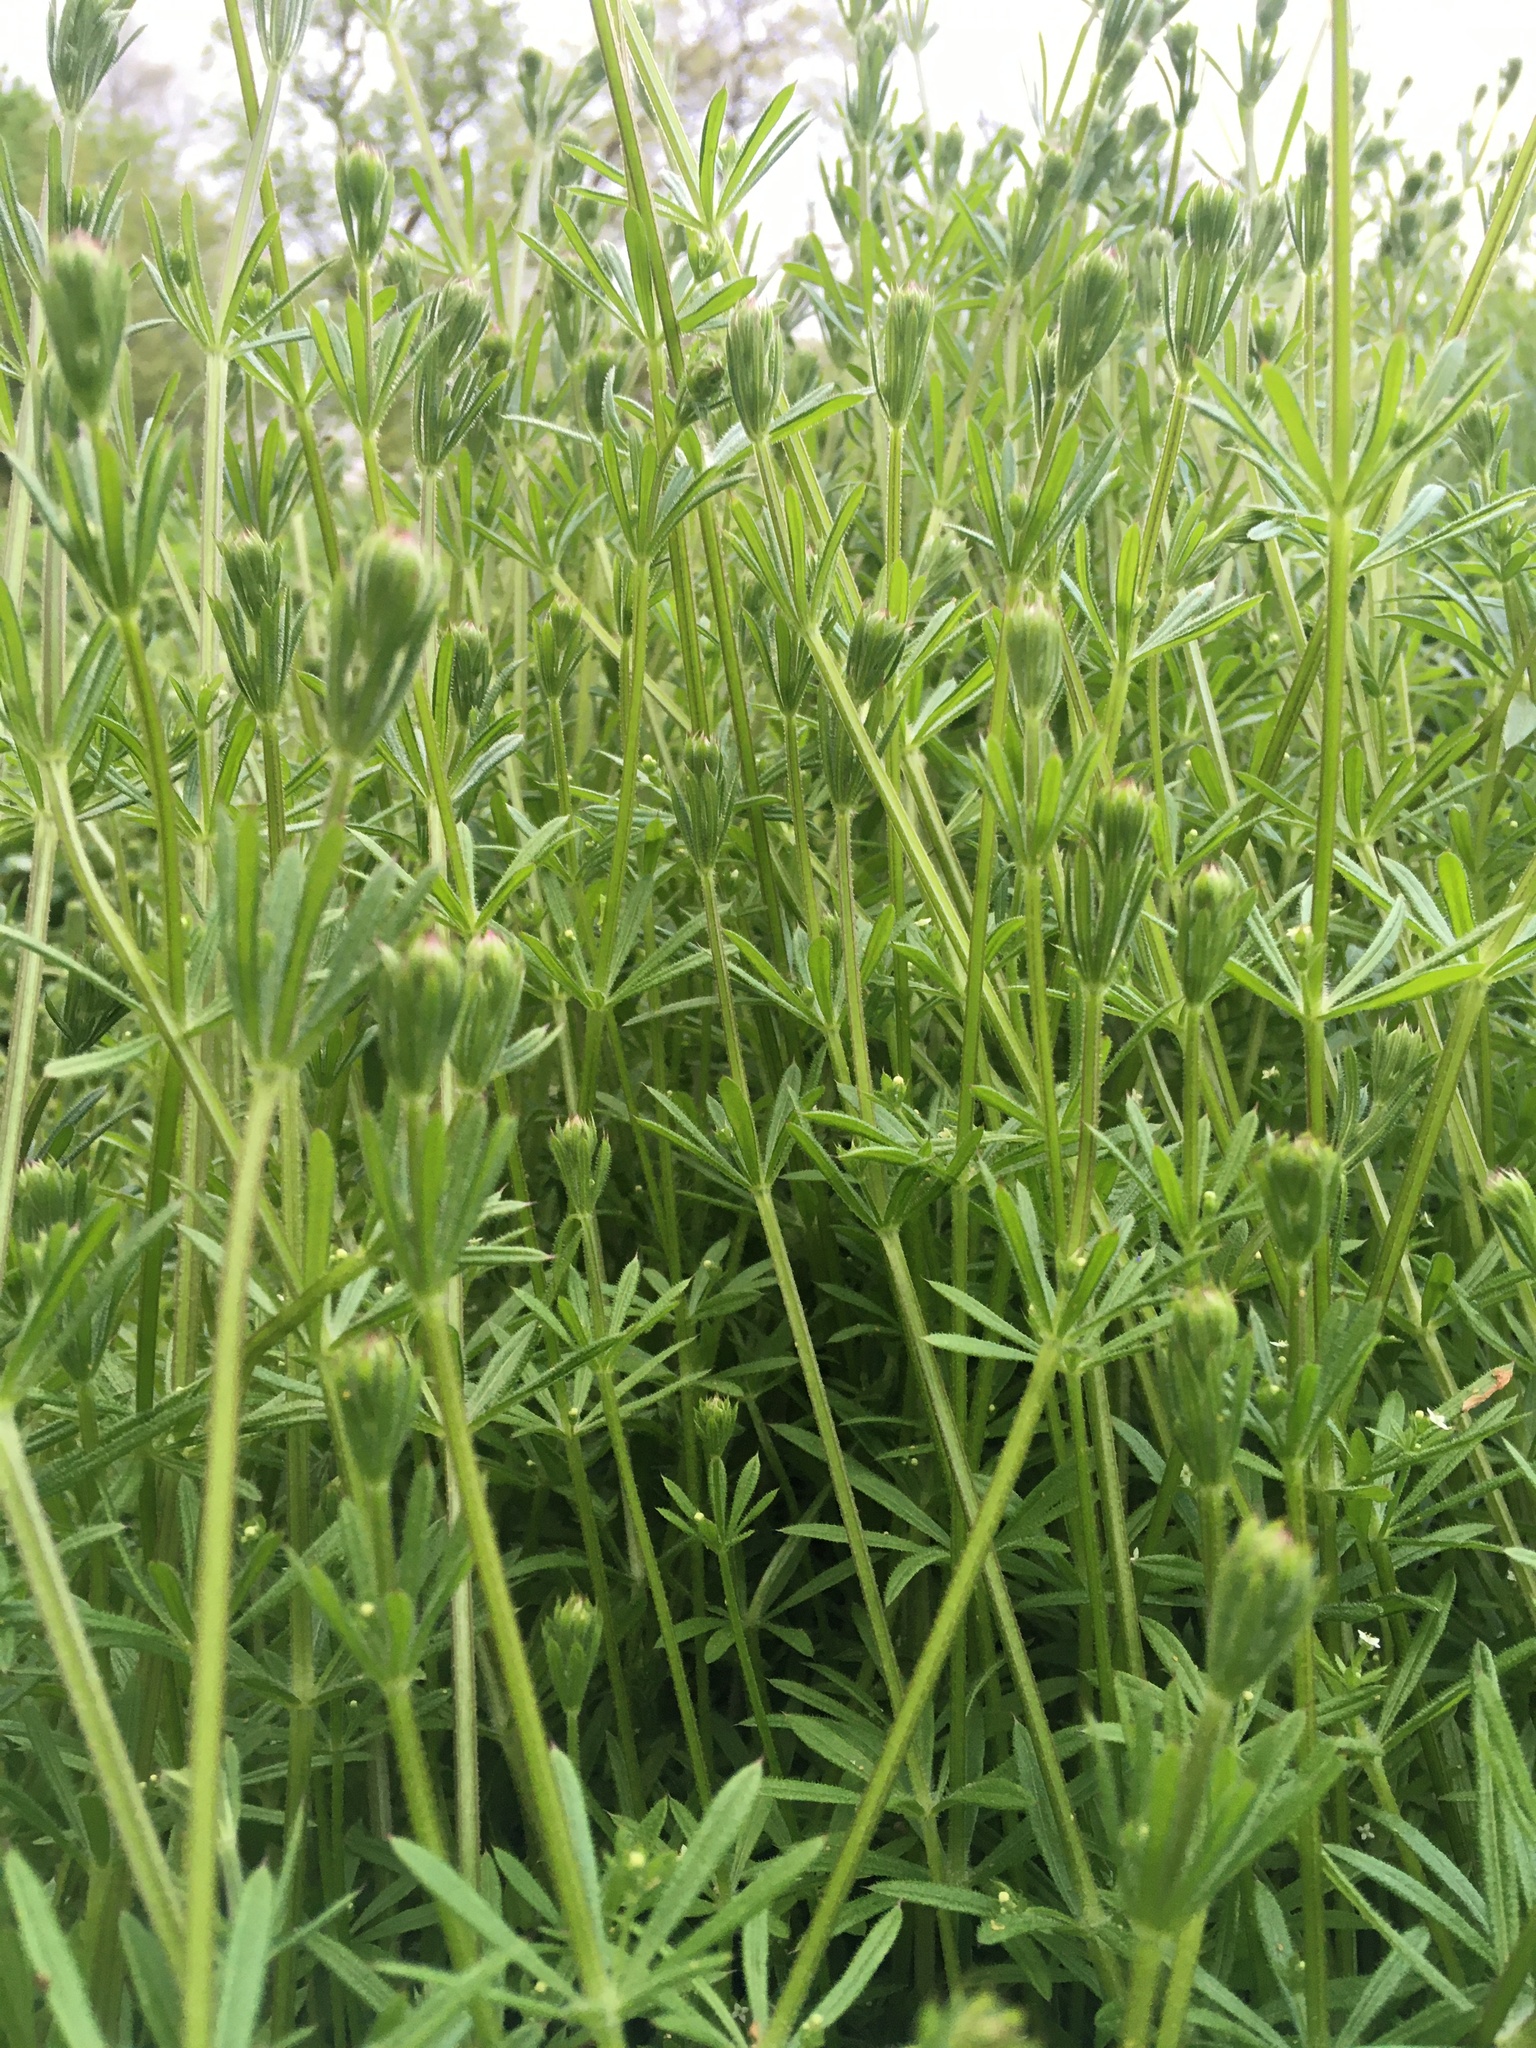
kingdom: Plantae
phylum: Tracheophyta
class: Magnoliopsida
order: Gentianales
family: Rubiaceae
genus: Galium
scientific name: Galium aparine
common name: Cleavers
